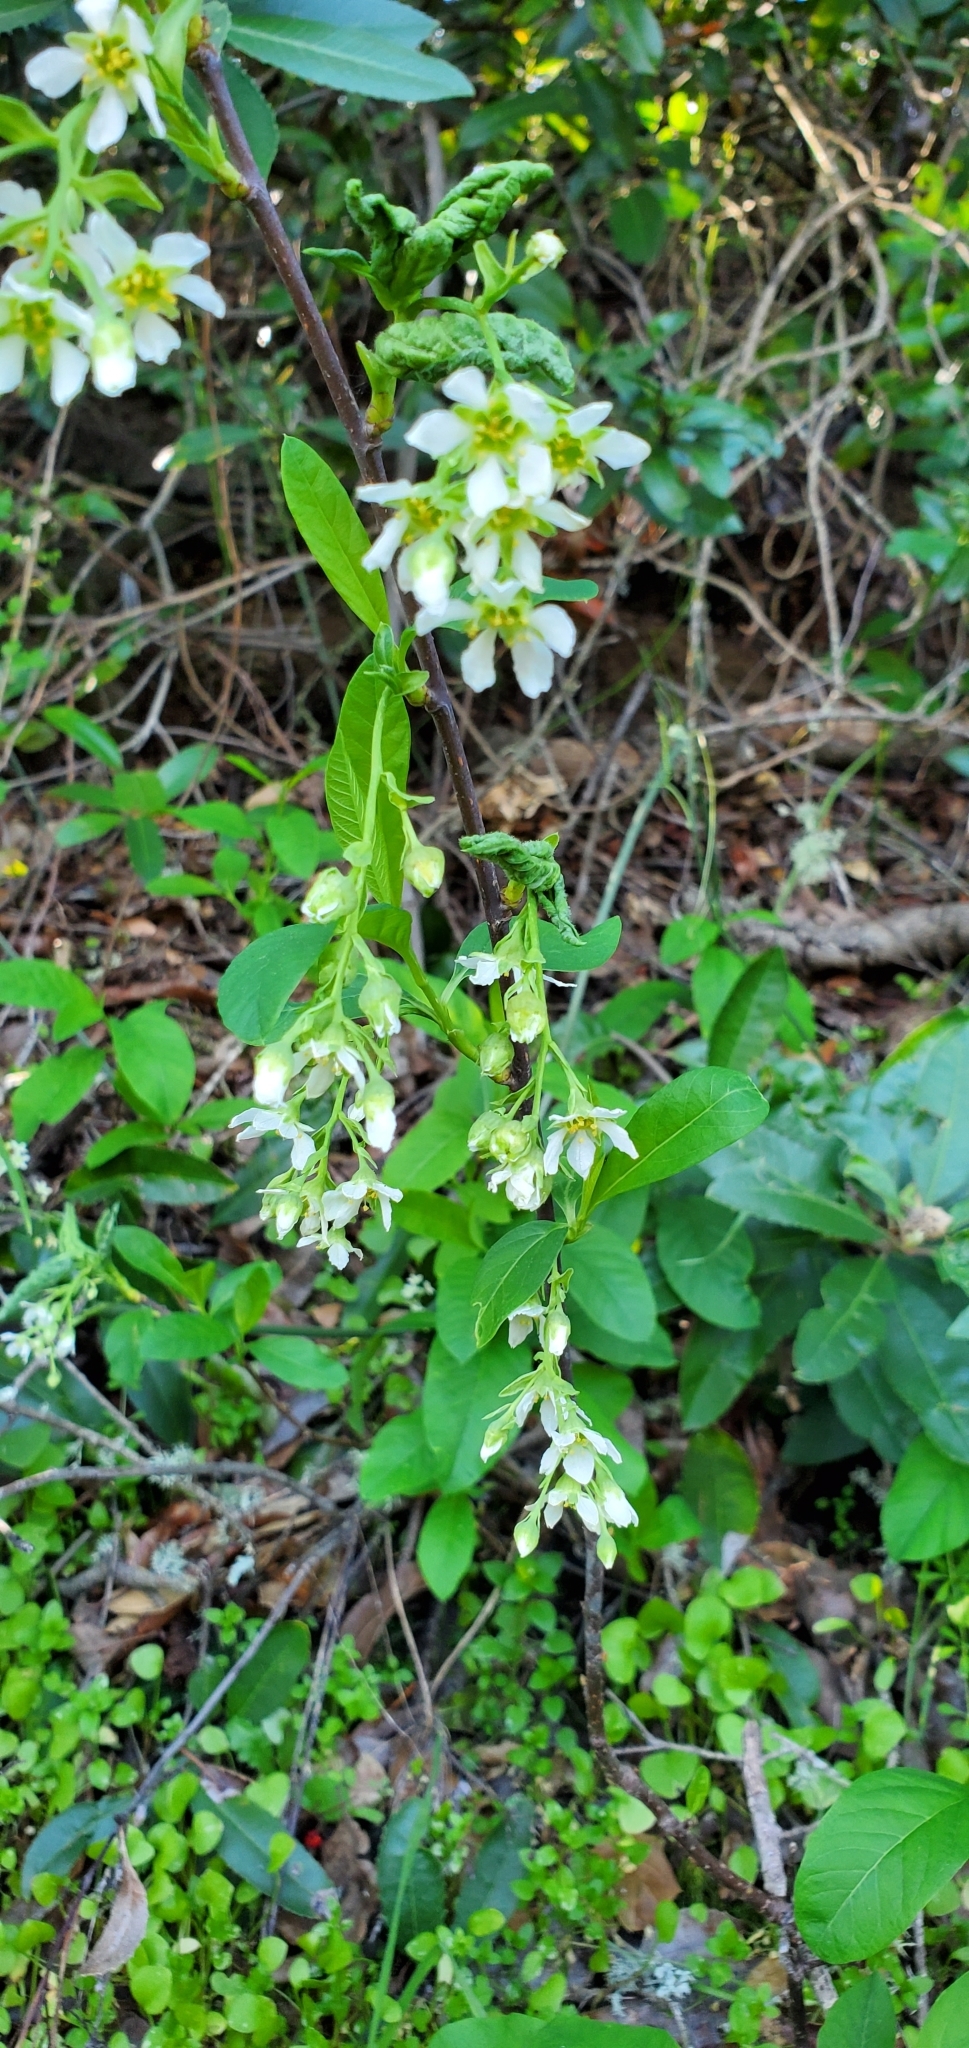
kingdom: Plantae
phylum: Tracheophyta
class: Magnoliopsida
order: Rosales
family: Rosaceae
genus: Oemleria
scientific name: Oemleria cerasiformis
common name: Osoberry
